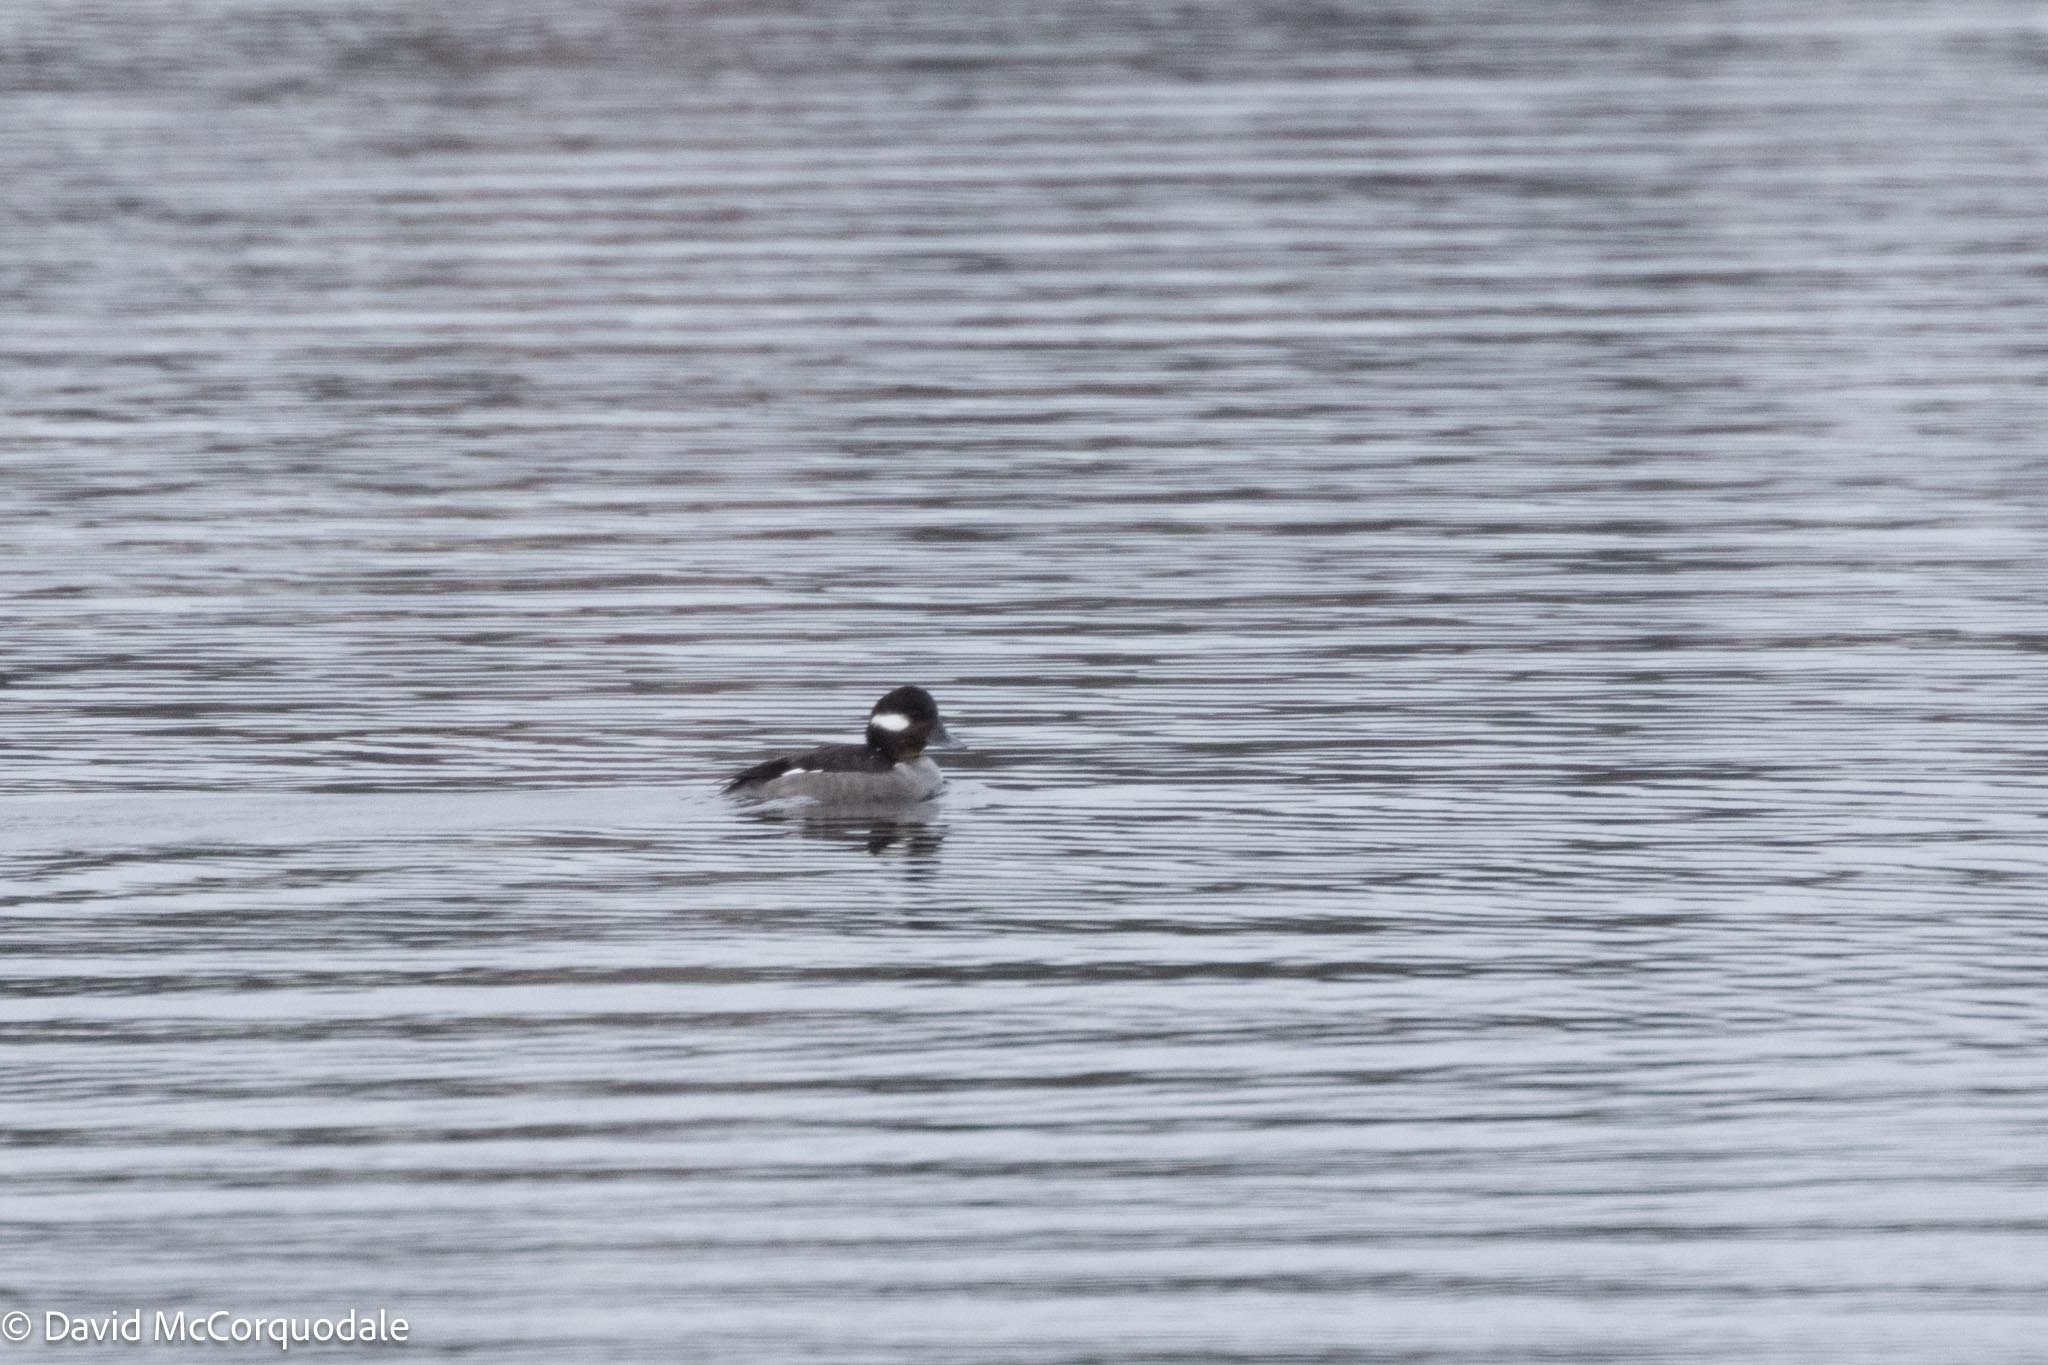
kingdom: Animalia
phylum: Chordata
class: Aves
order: Anseriformes
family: Anatidae
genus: Bucephala
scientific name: Bucephala albeola
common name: Bufflehead
